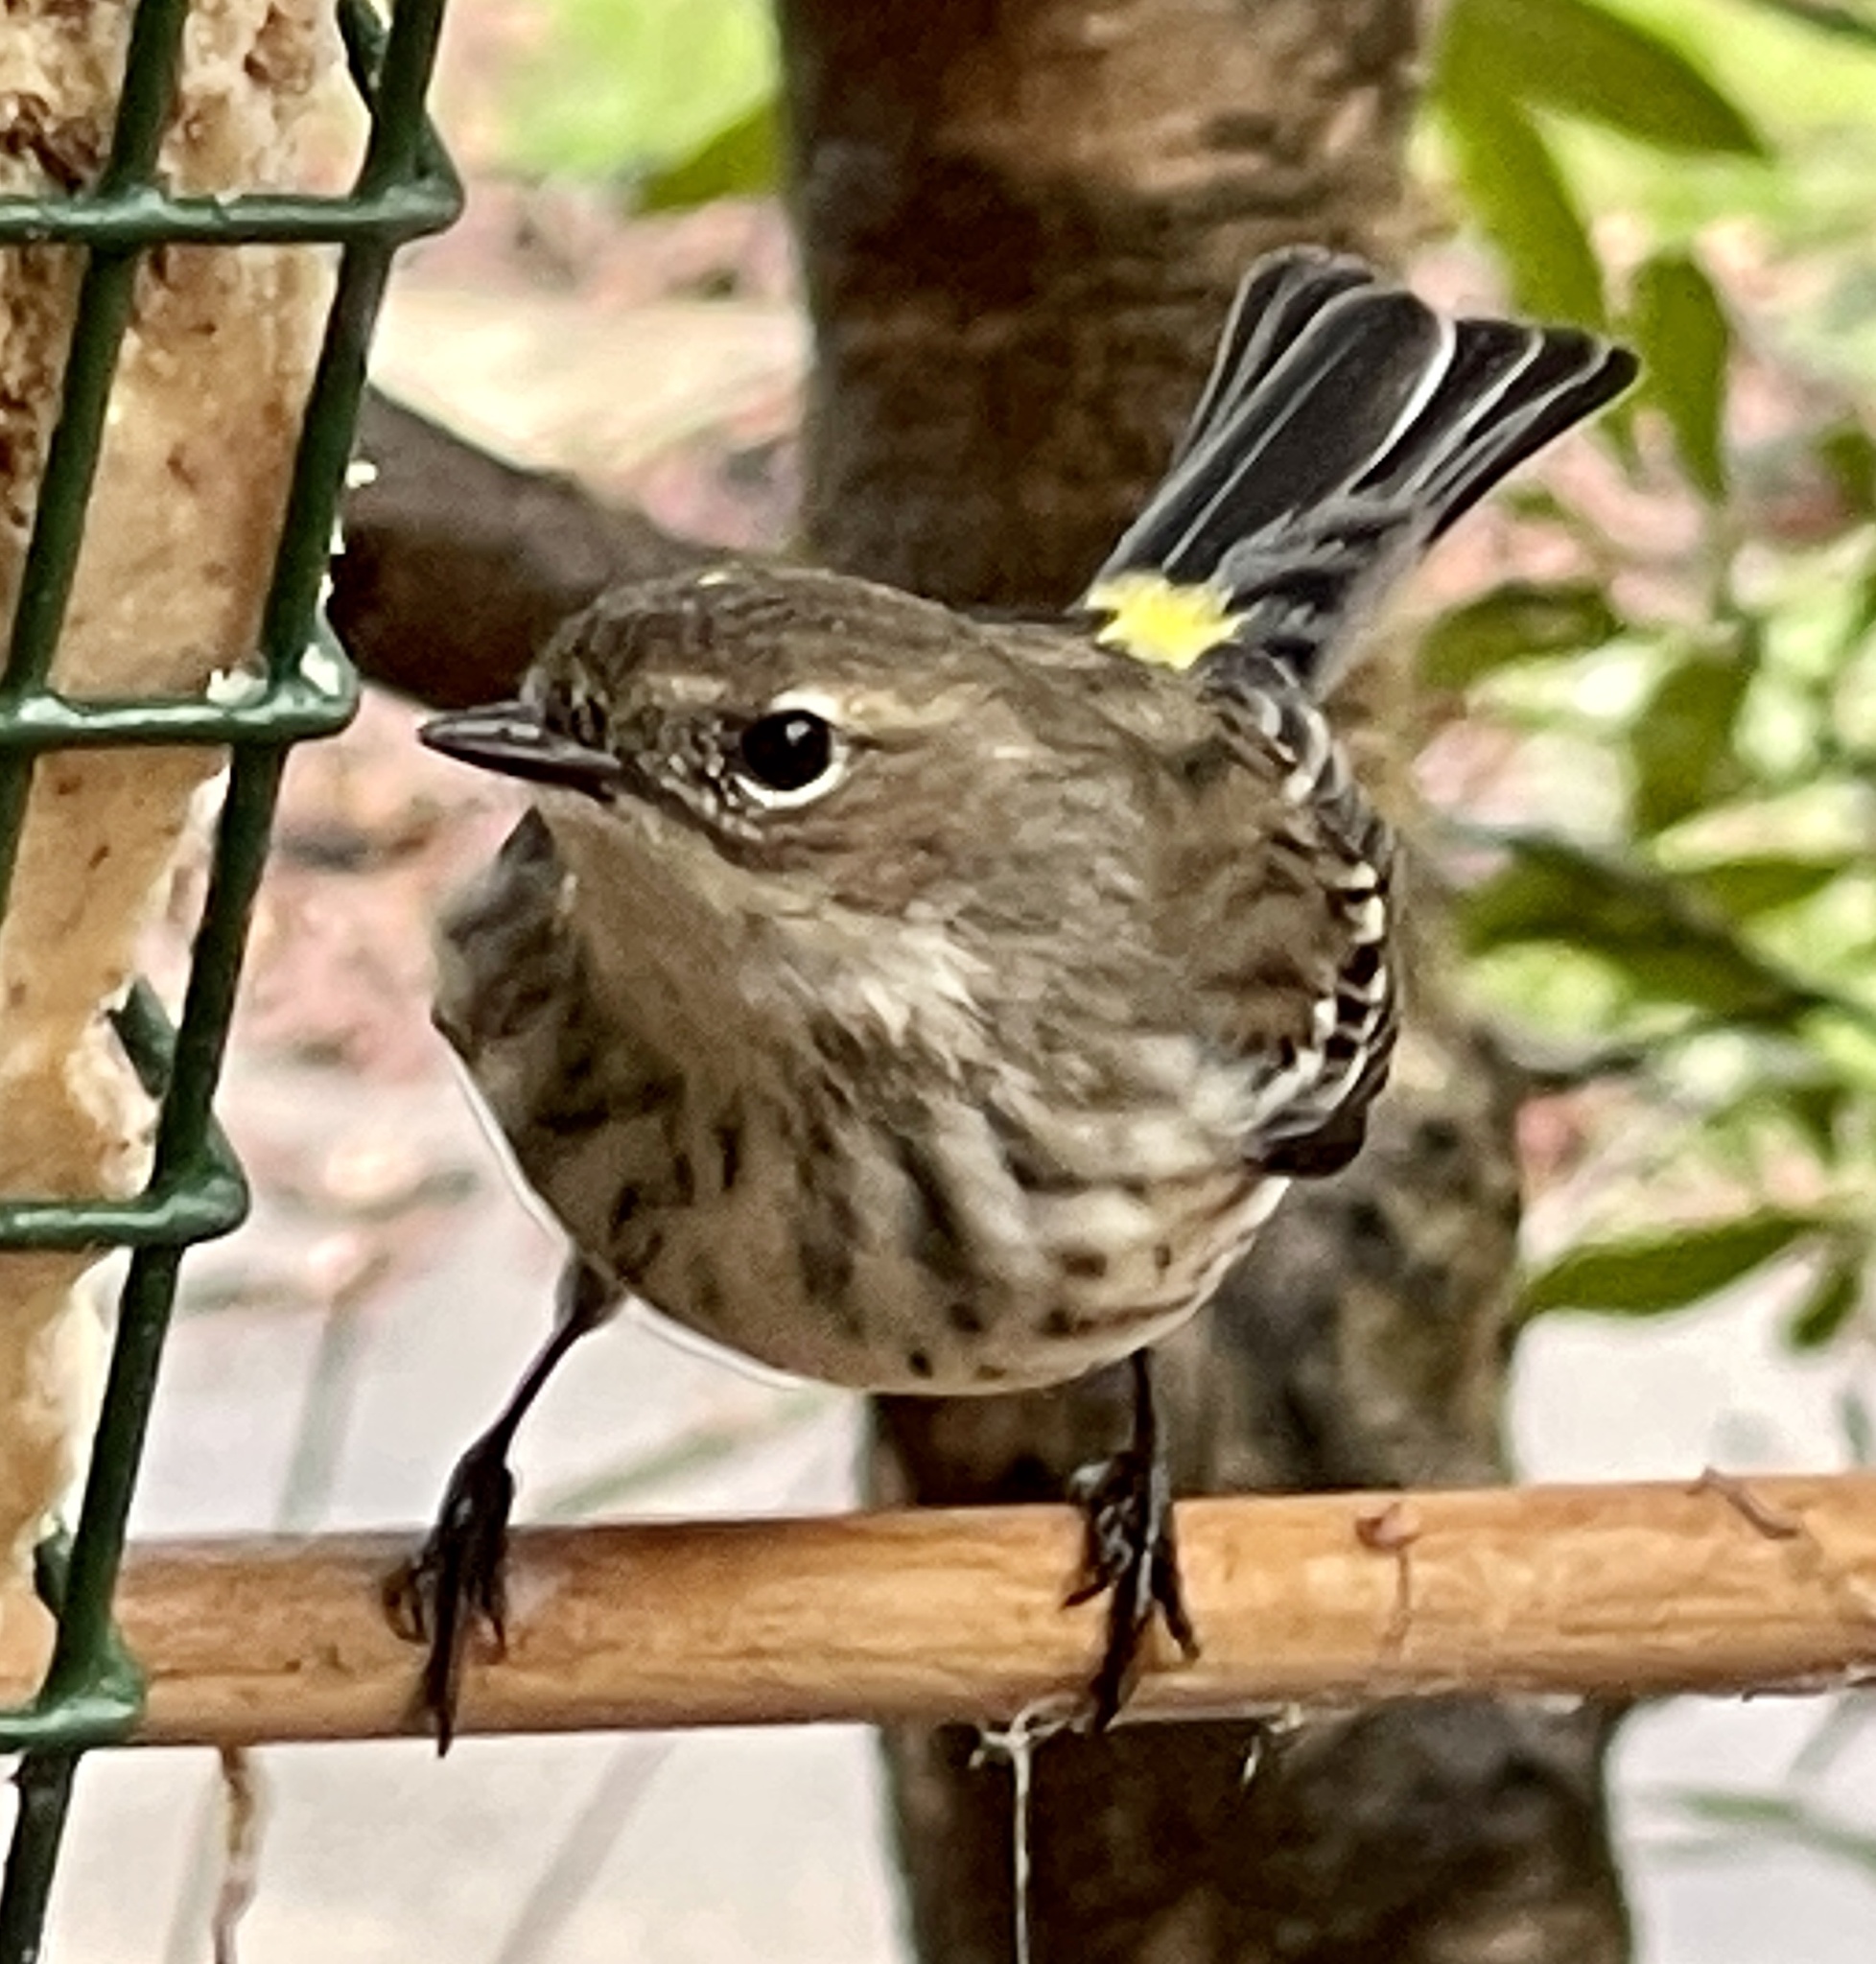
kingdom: Animalia
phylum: Chordata
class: Aves
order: Passeriformes
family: Parulidae
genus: Setophaga
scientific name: Setophaga coronata
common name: Myrtle warbler
